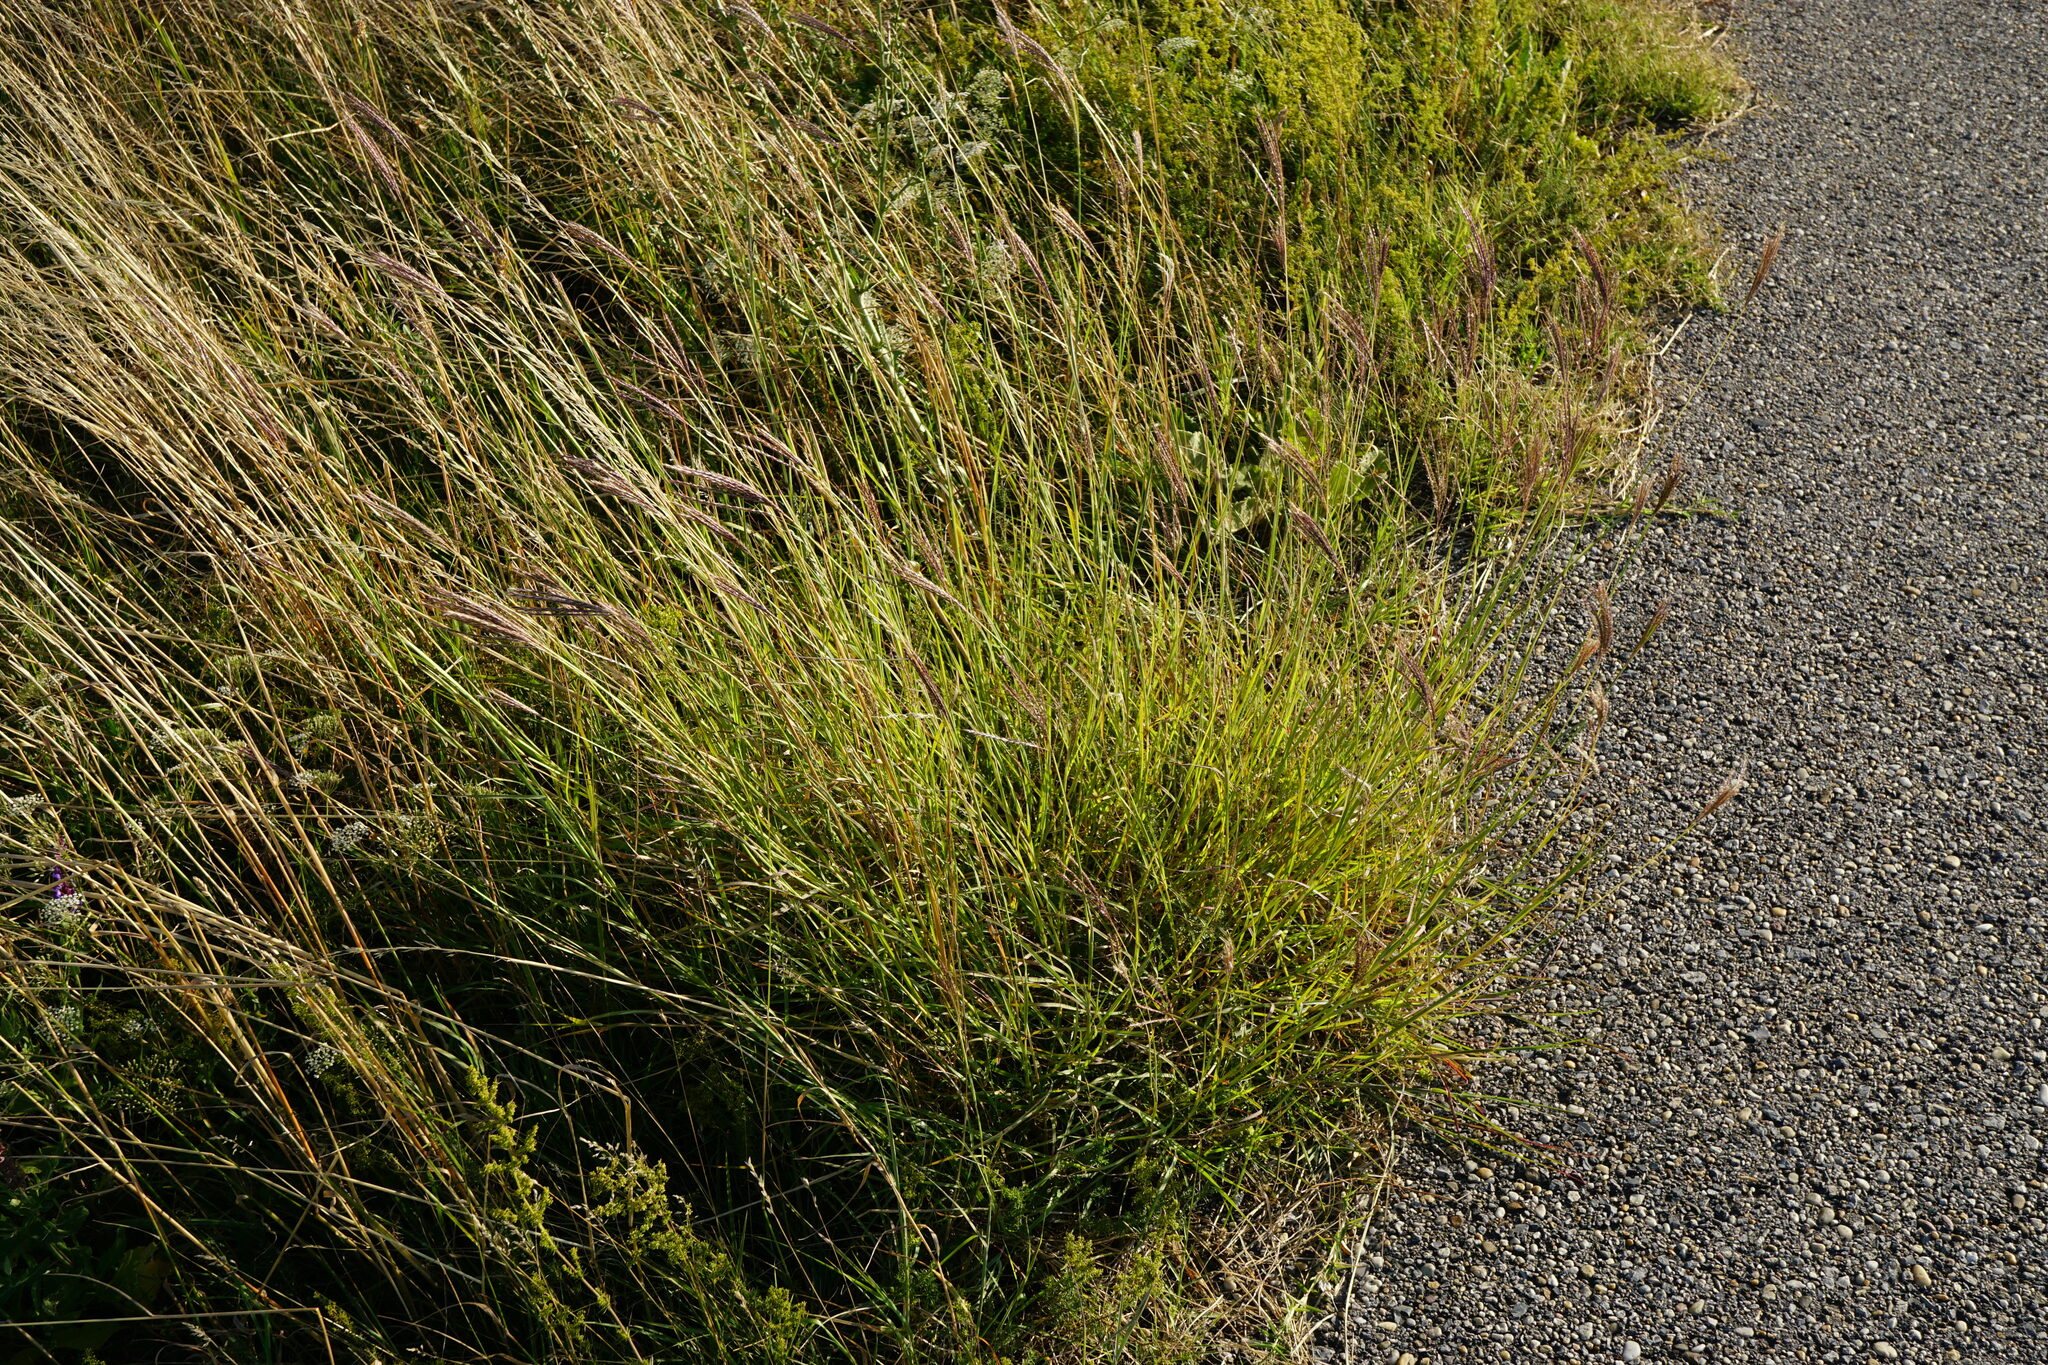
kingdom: Plantae
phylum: Tracheophyta
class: Liliopsida
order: Poales
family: Poaceae
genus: Bothriochloa
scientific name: Bothriochloa ischaemum
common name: Yellow bluestem
